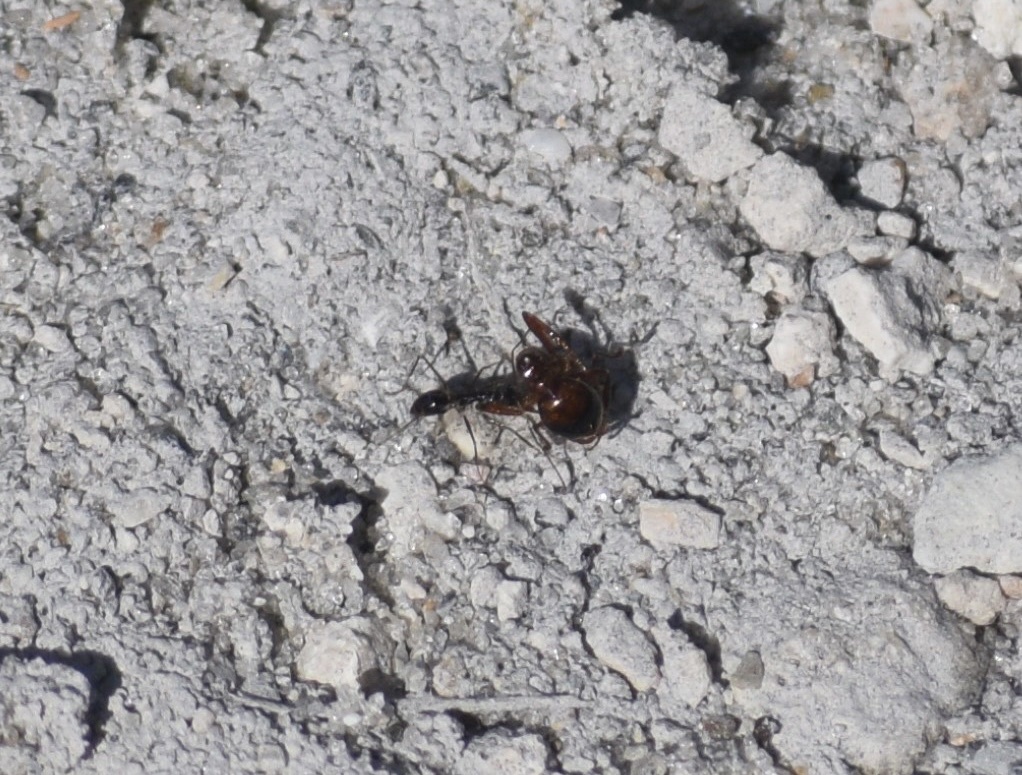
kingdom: Animalia
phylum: Arthropoda
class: Insecta
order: Hymenoptera
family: Formicidae
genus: Paratrechina
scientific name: Paratrechina longicornis
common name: Longhorned crazy ant
